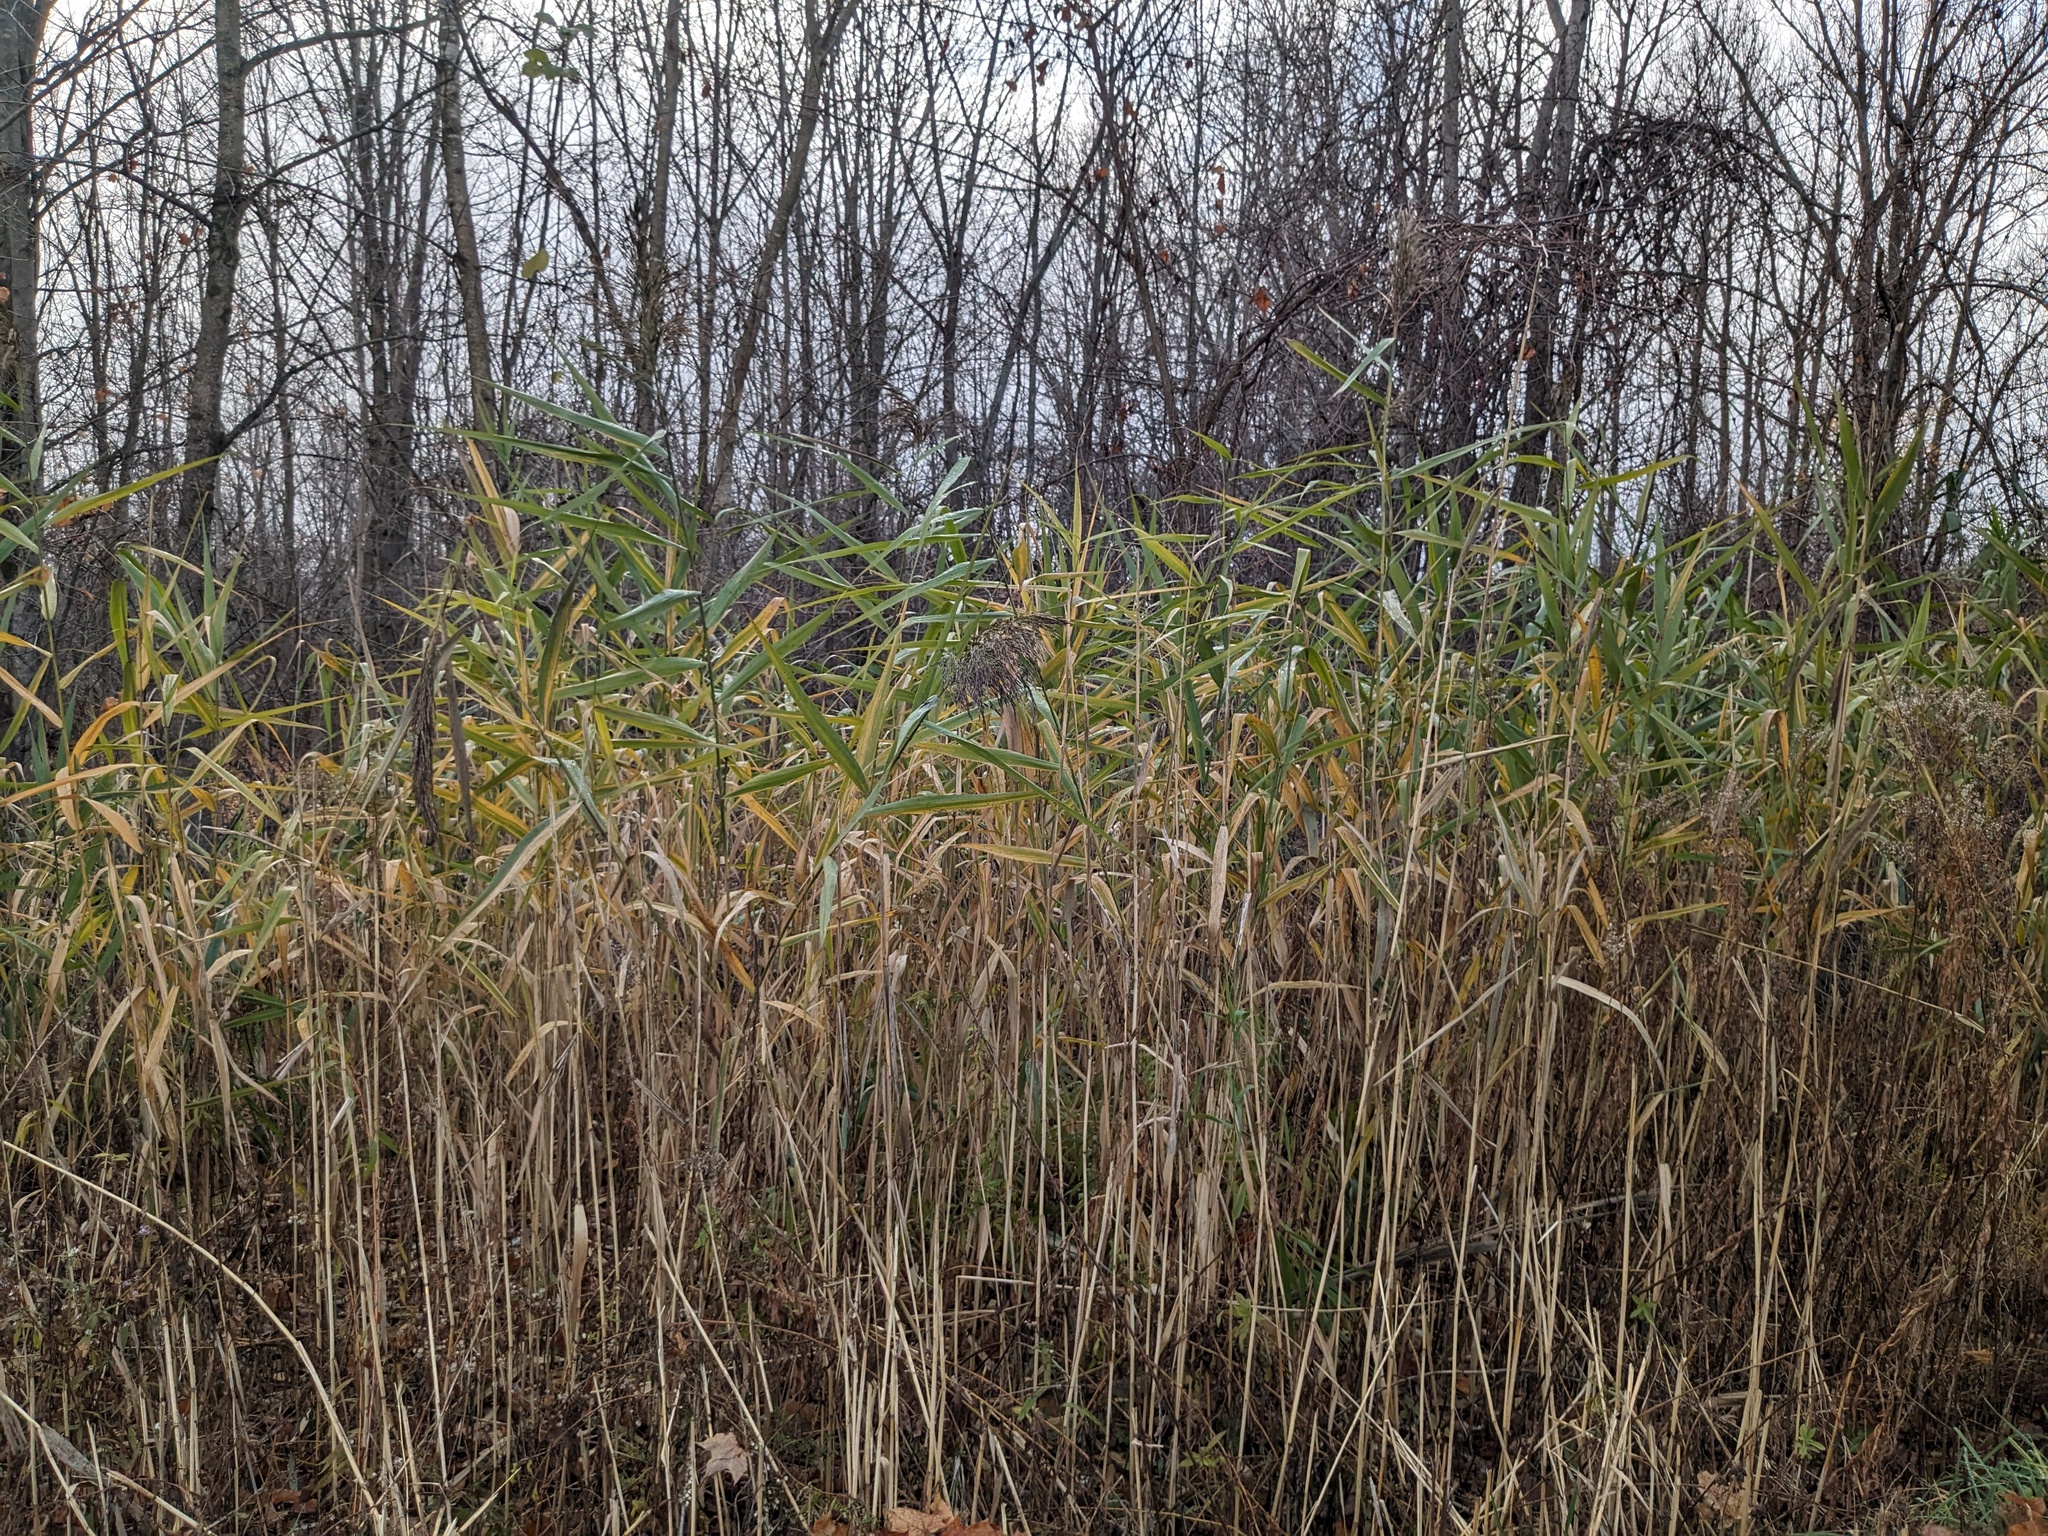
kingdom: Plantae
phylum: Tracheophyta
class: Liliopsida
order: Poales
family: Poaceae
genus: Phragmites
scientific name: Phragmites australis
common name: Common reed
